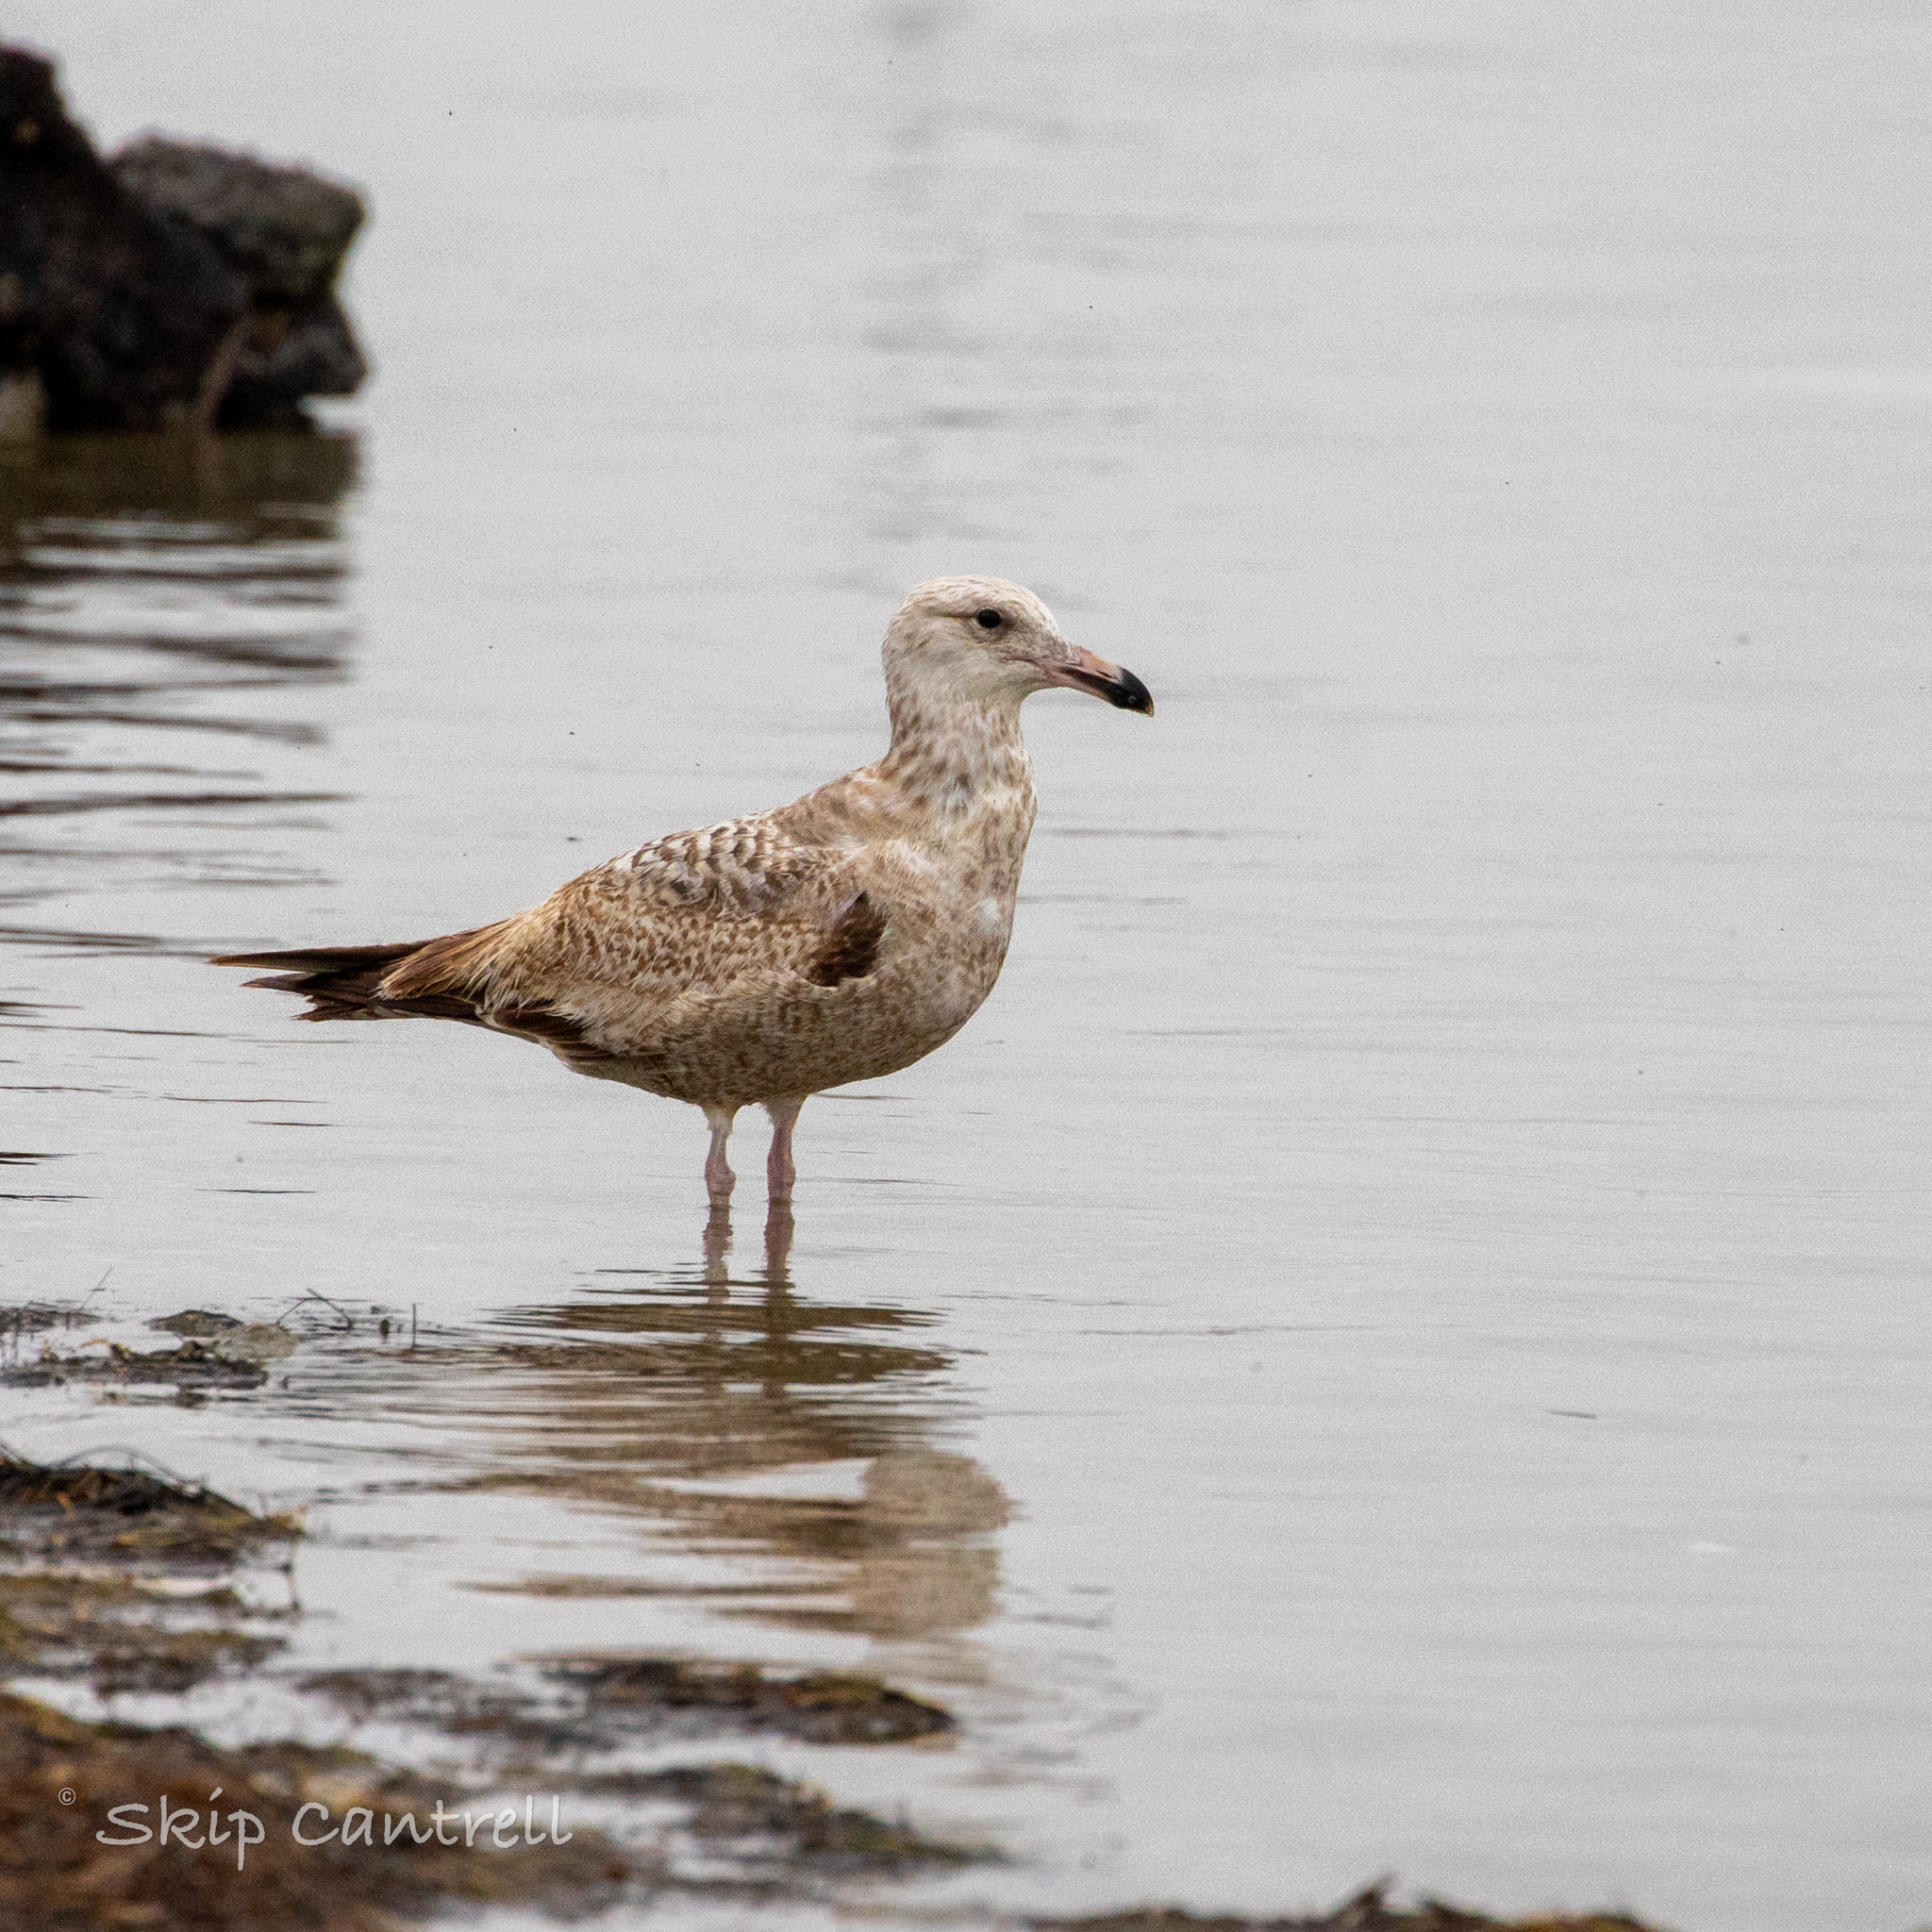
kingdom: Animalia
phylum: Chordata
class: Aves
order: Charadriiformes
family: Laridae
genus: Larus
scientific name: Larus argentatus
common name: Herring gull
